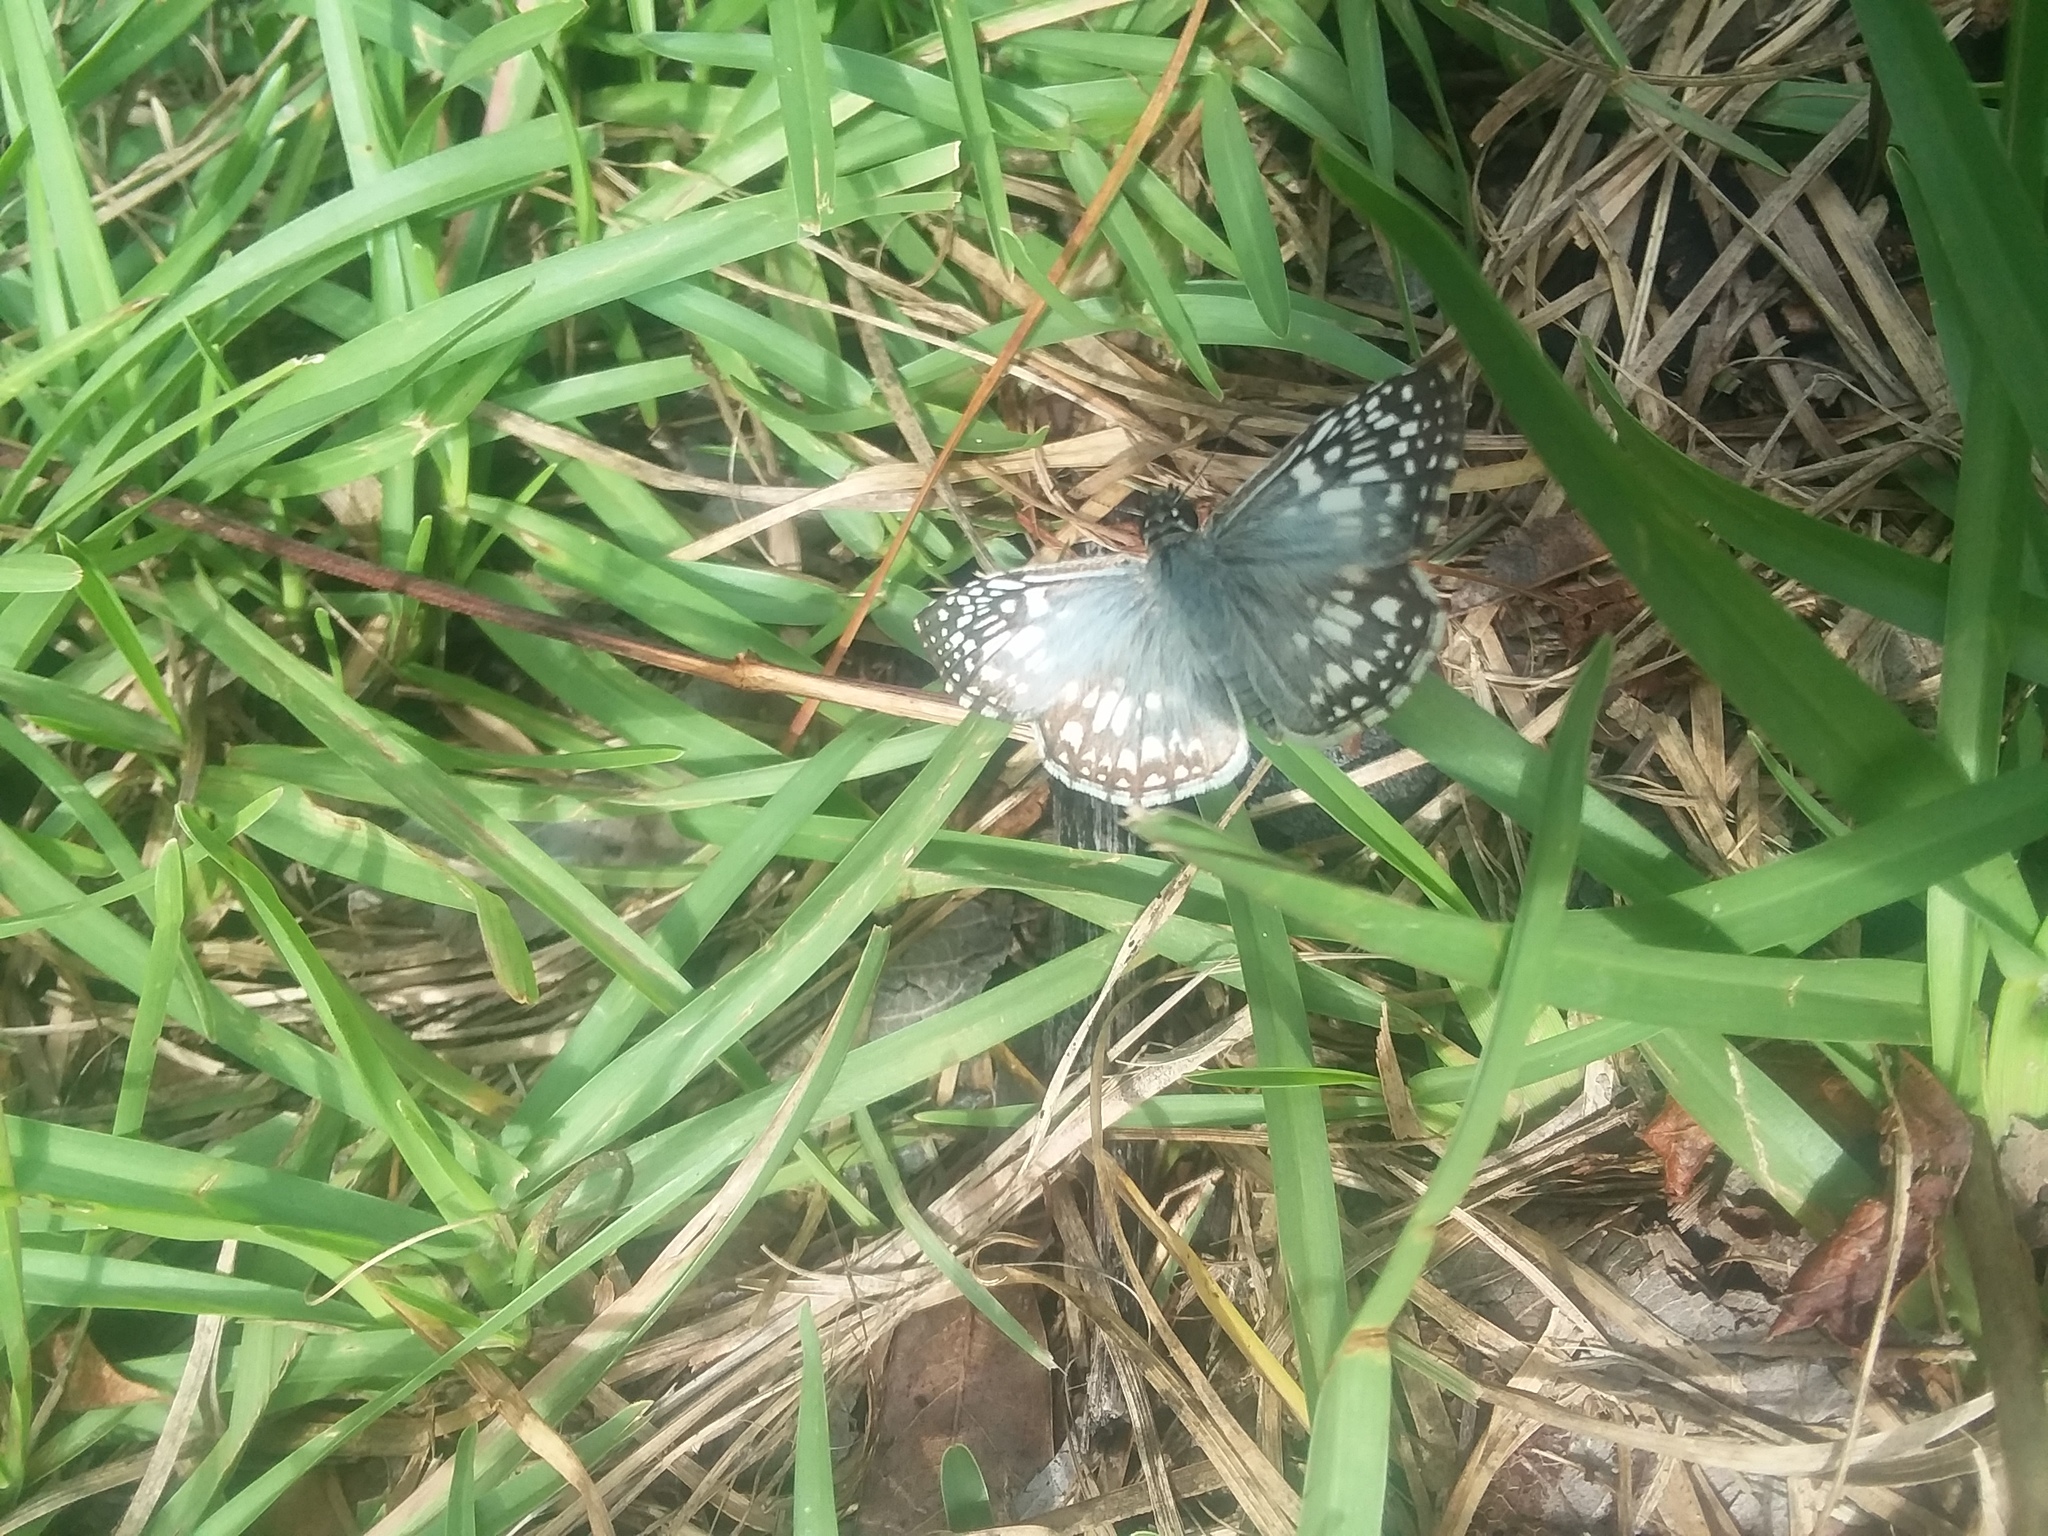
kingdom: Animalia
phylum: Arthropoda
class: Insecta
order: Lepidoptera
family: Hesperiidae
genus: Pyrgus
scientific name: Pyrgus oileus
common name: Tropical checkered-skipper
